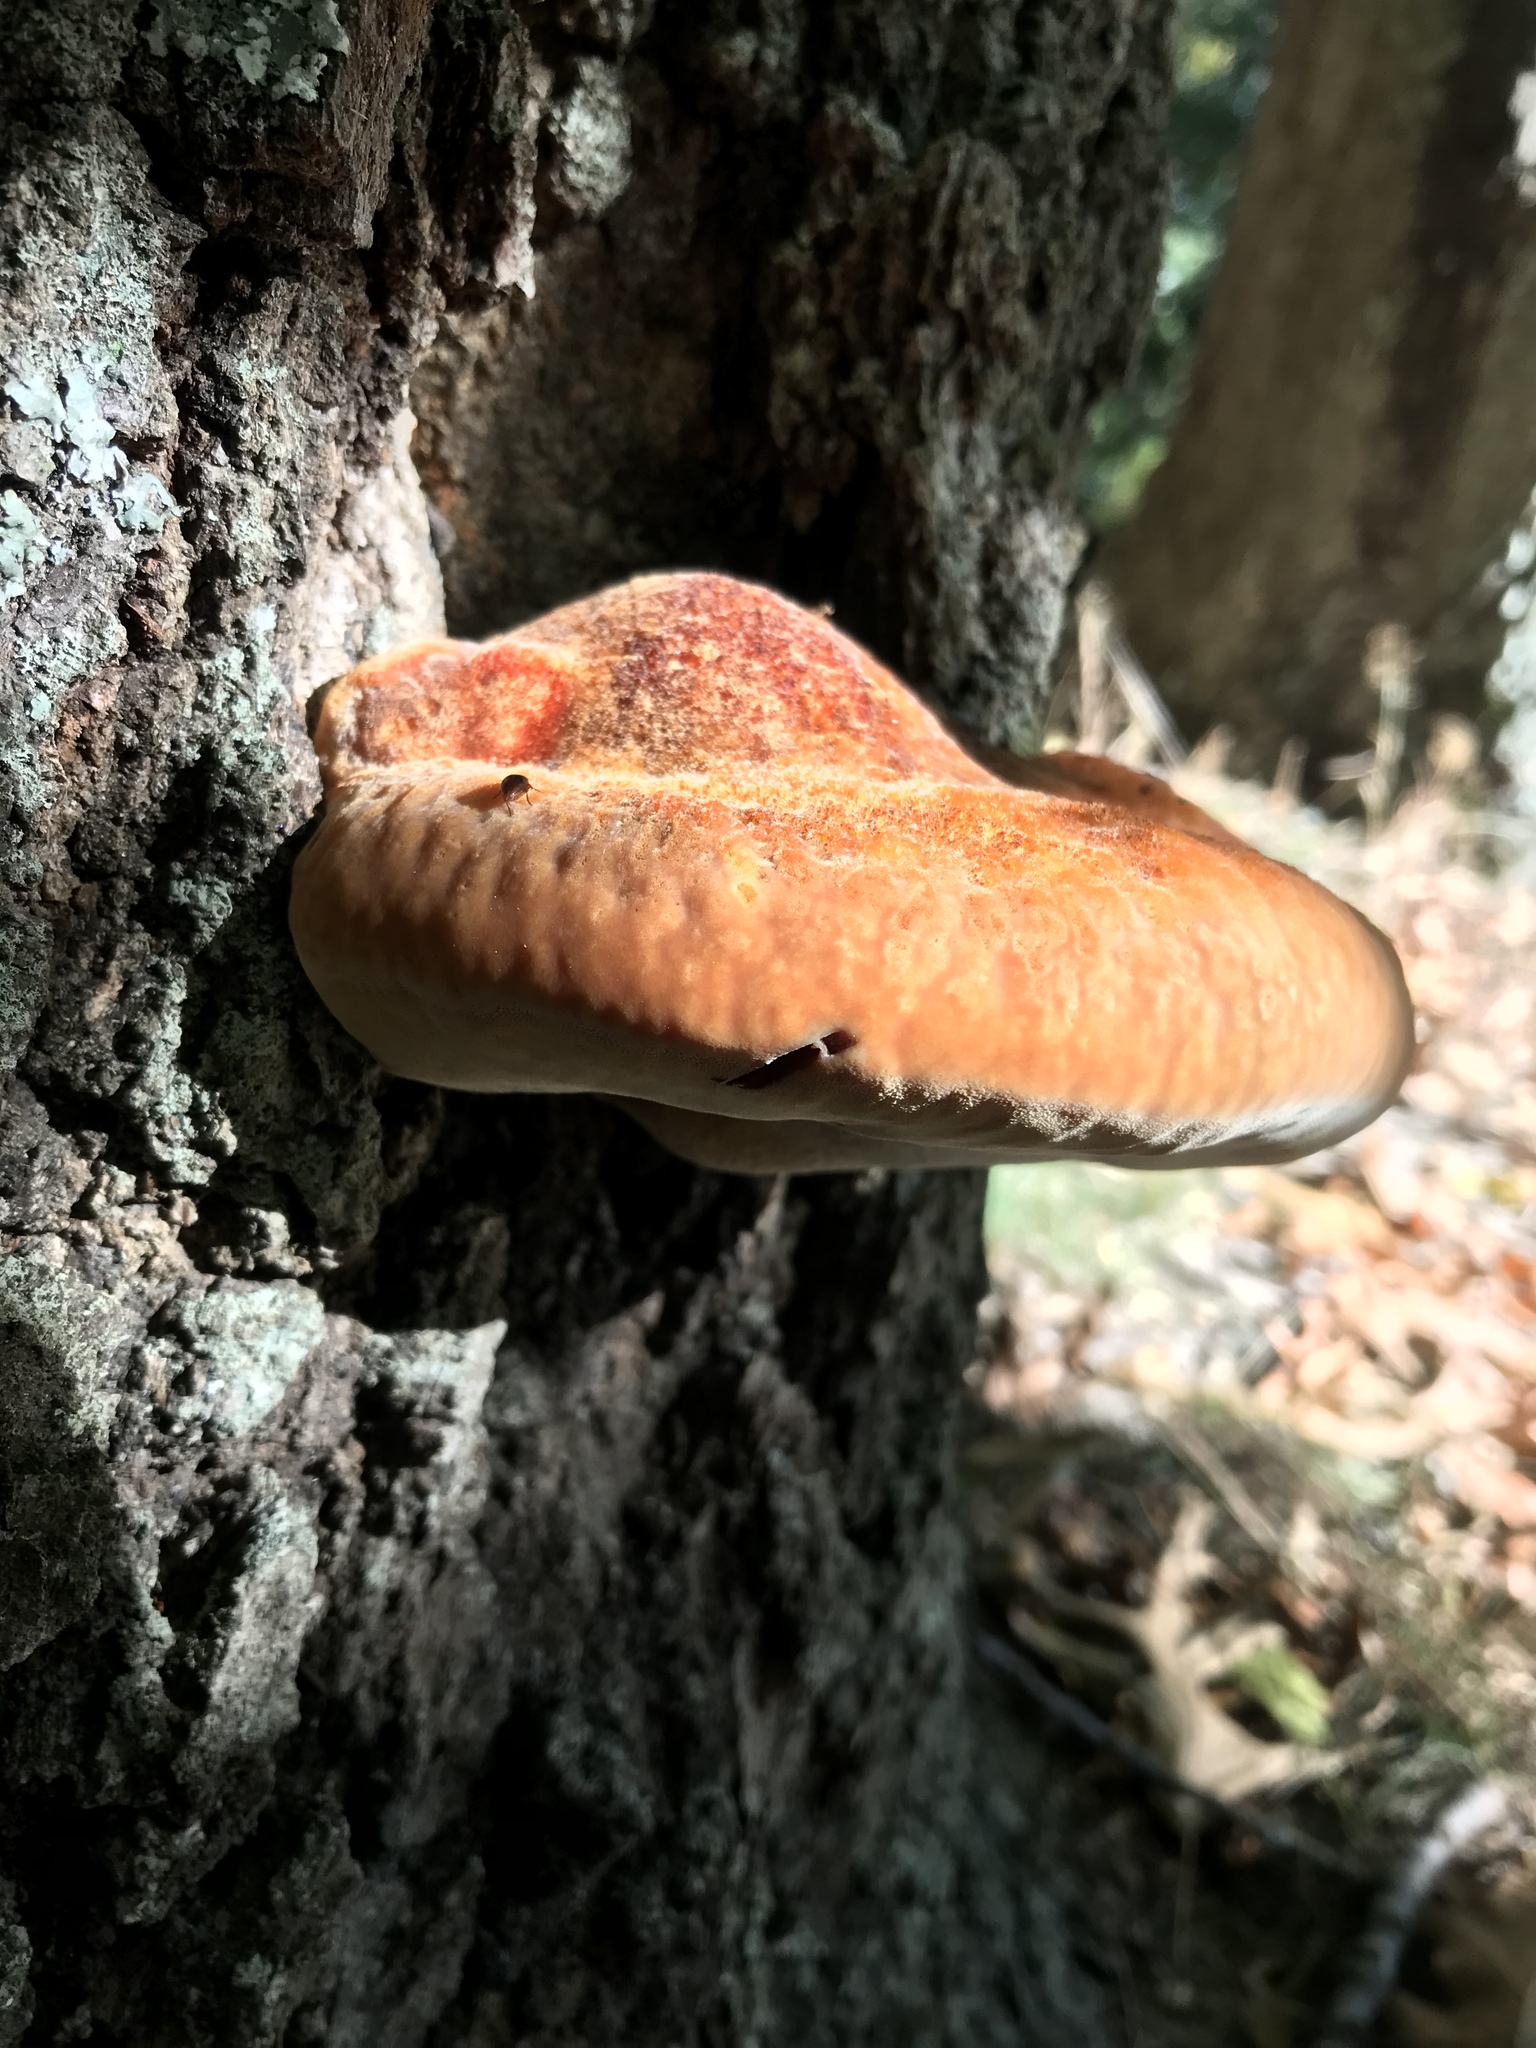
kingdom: Fungi
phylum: Basidiomycota
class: Agaricomycetes
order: Hymenochaetales
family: Hymenochaetaceae
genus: Inonotus
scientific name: Inonotus hispidus
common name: Shaggy bracket
